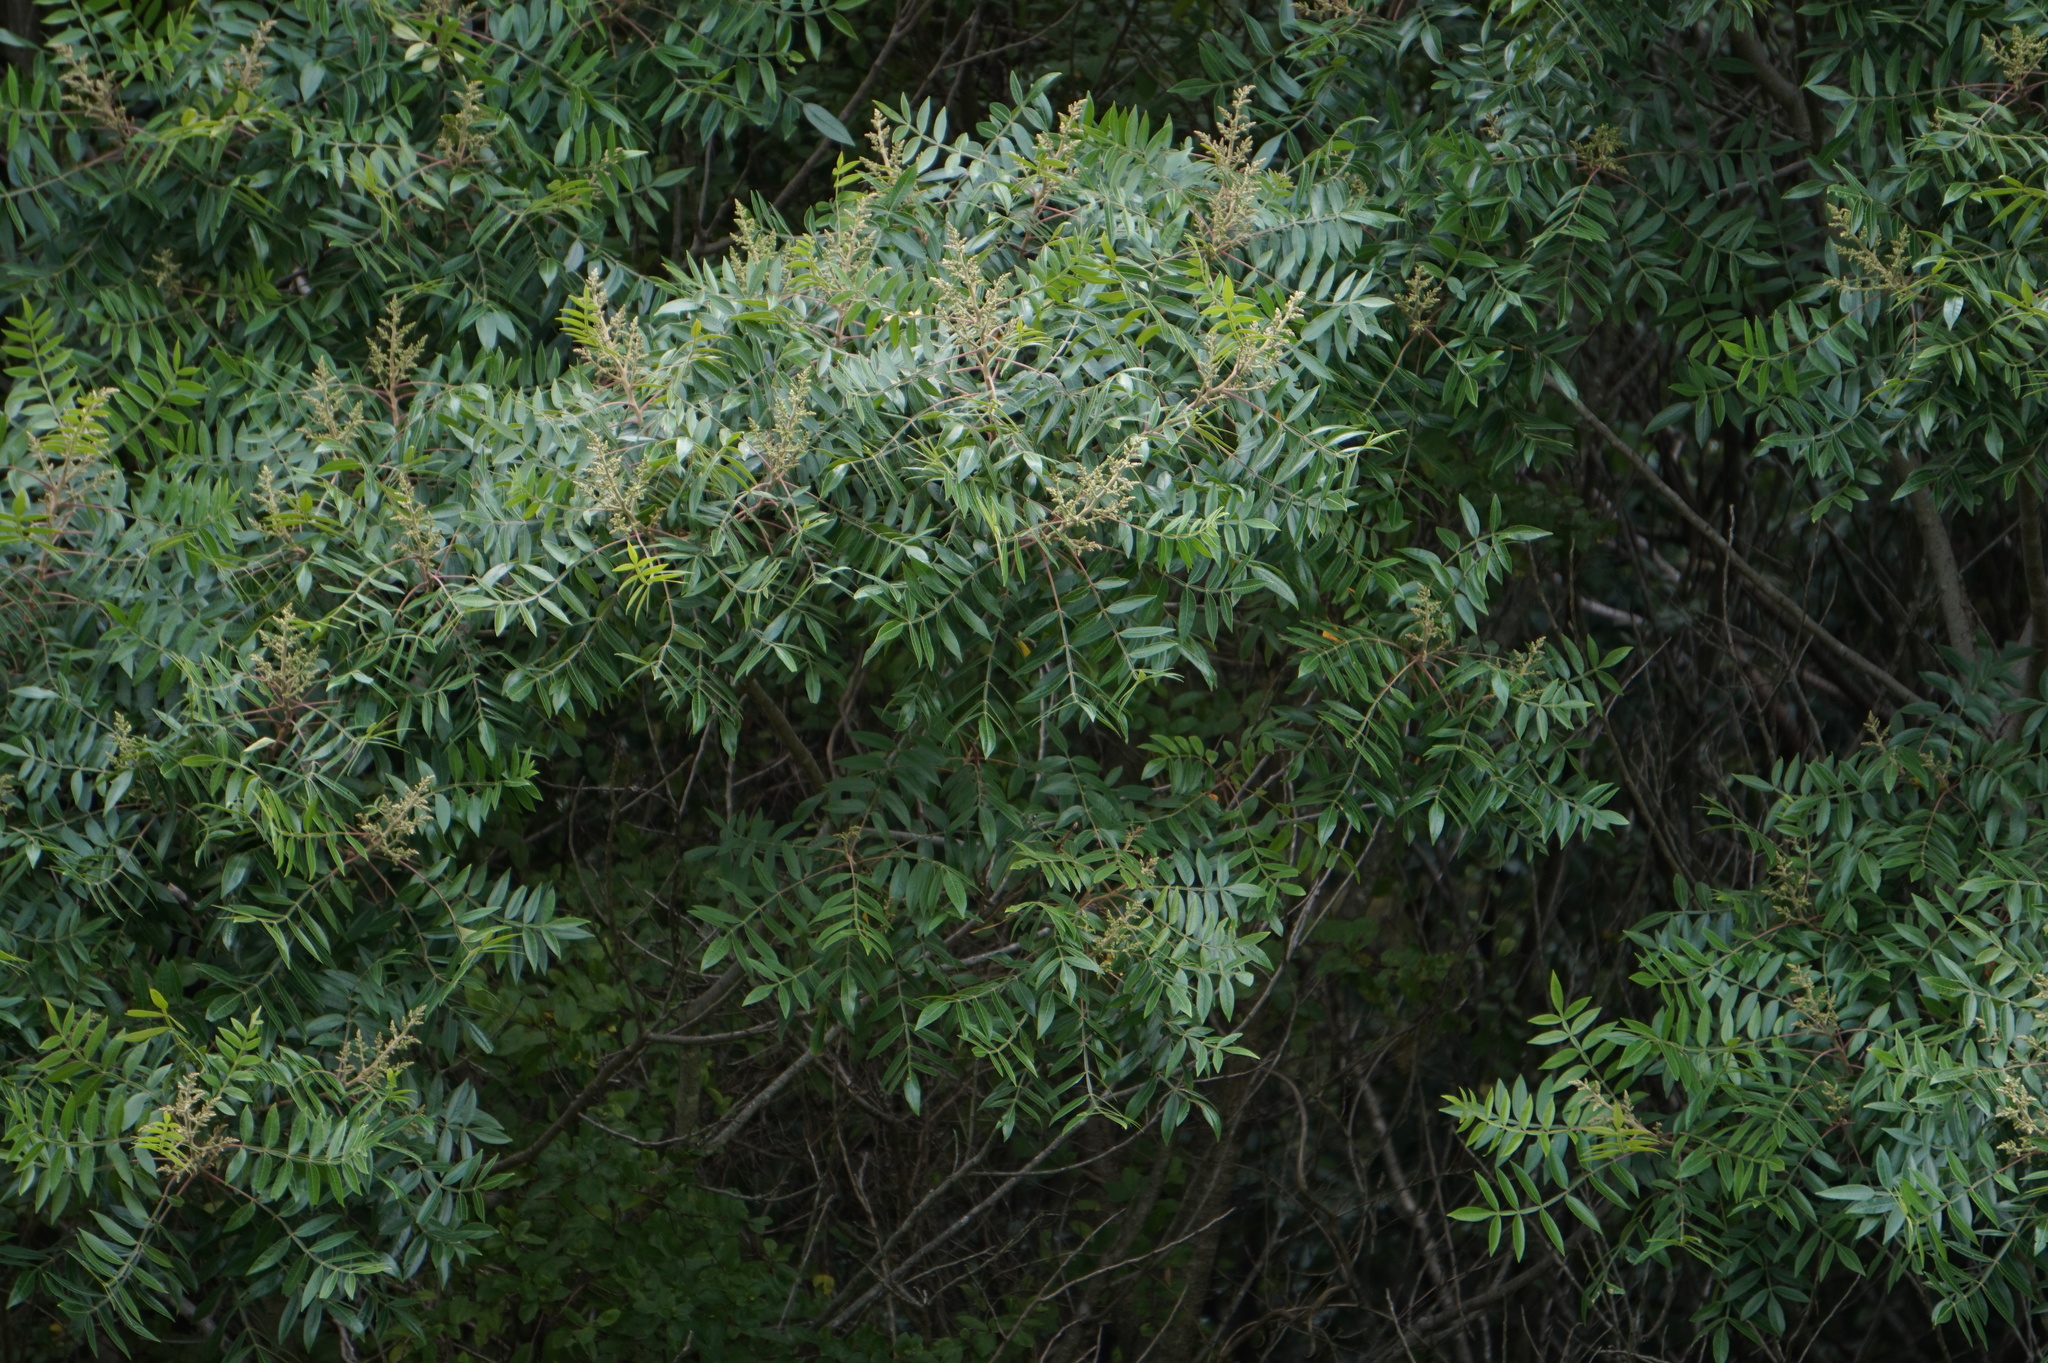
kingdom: Plantae
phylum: Tracheophyta
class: Magnoliopsida
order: Sapindales
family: Anacardiaceae
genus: Rhus
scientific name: Rhus copallina
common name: Shining sumac
